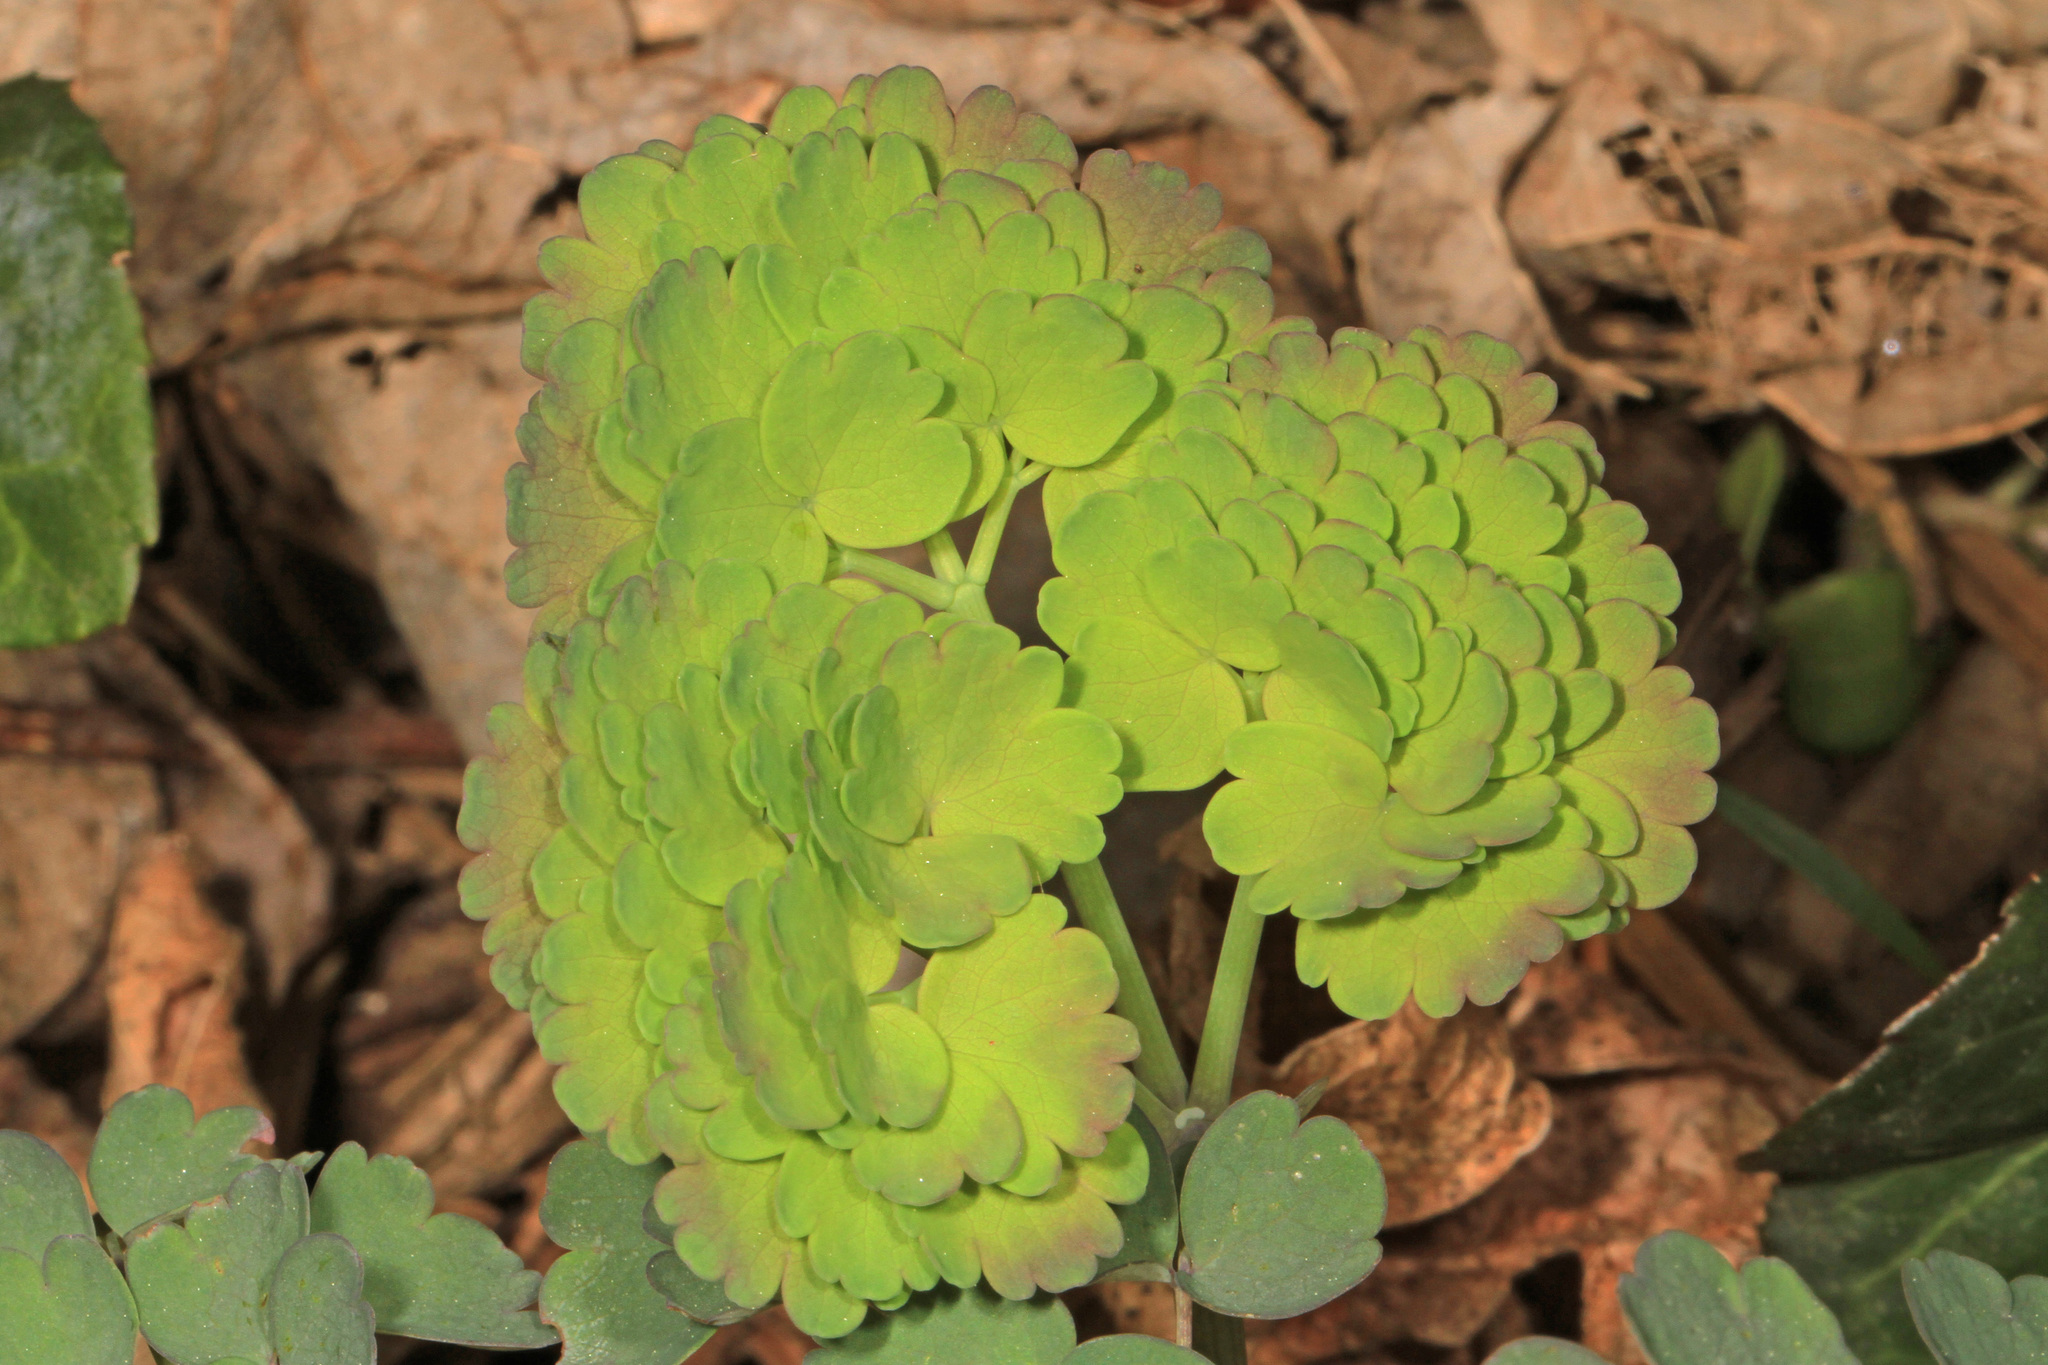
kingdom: Plantae
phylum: Tracheophyta
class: Magnoliopsida
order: Ranunculales
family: Ranunculaceae
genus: Thalictrum
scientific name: Thalictrum dioicum
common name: Early meadow-rue
